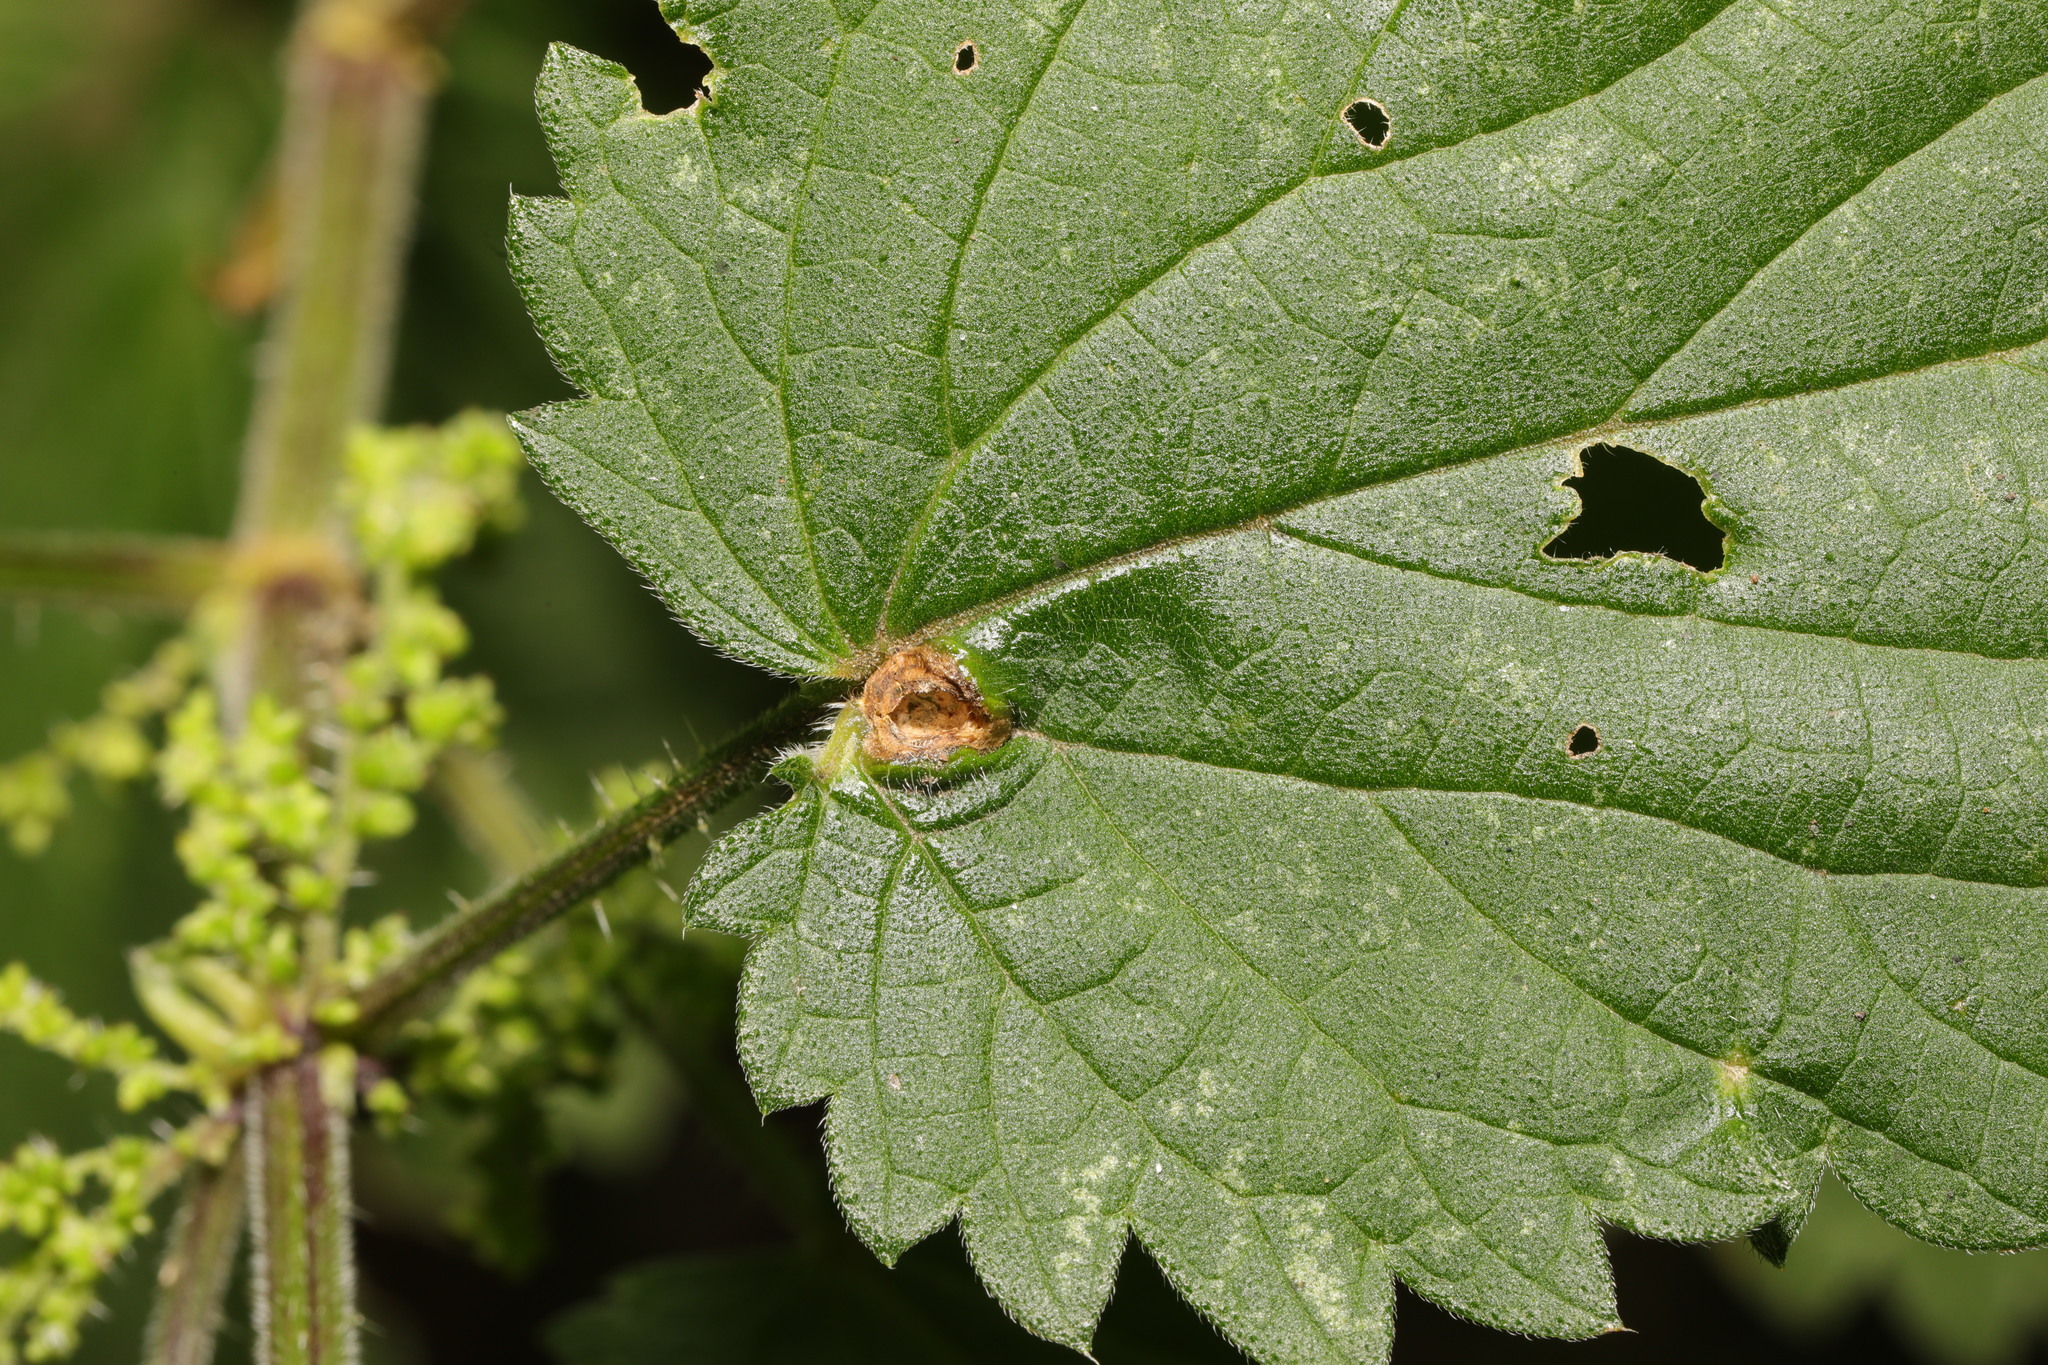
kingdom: Animalia
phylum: Arthropoda
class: Insecta
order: Diptera
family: Cecidomyiidae
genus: Dasineura
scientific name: Dasineura urticae
